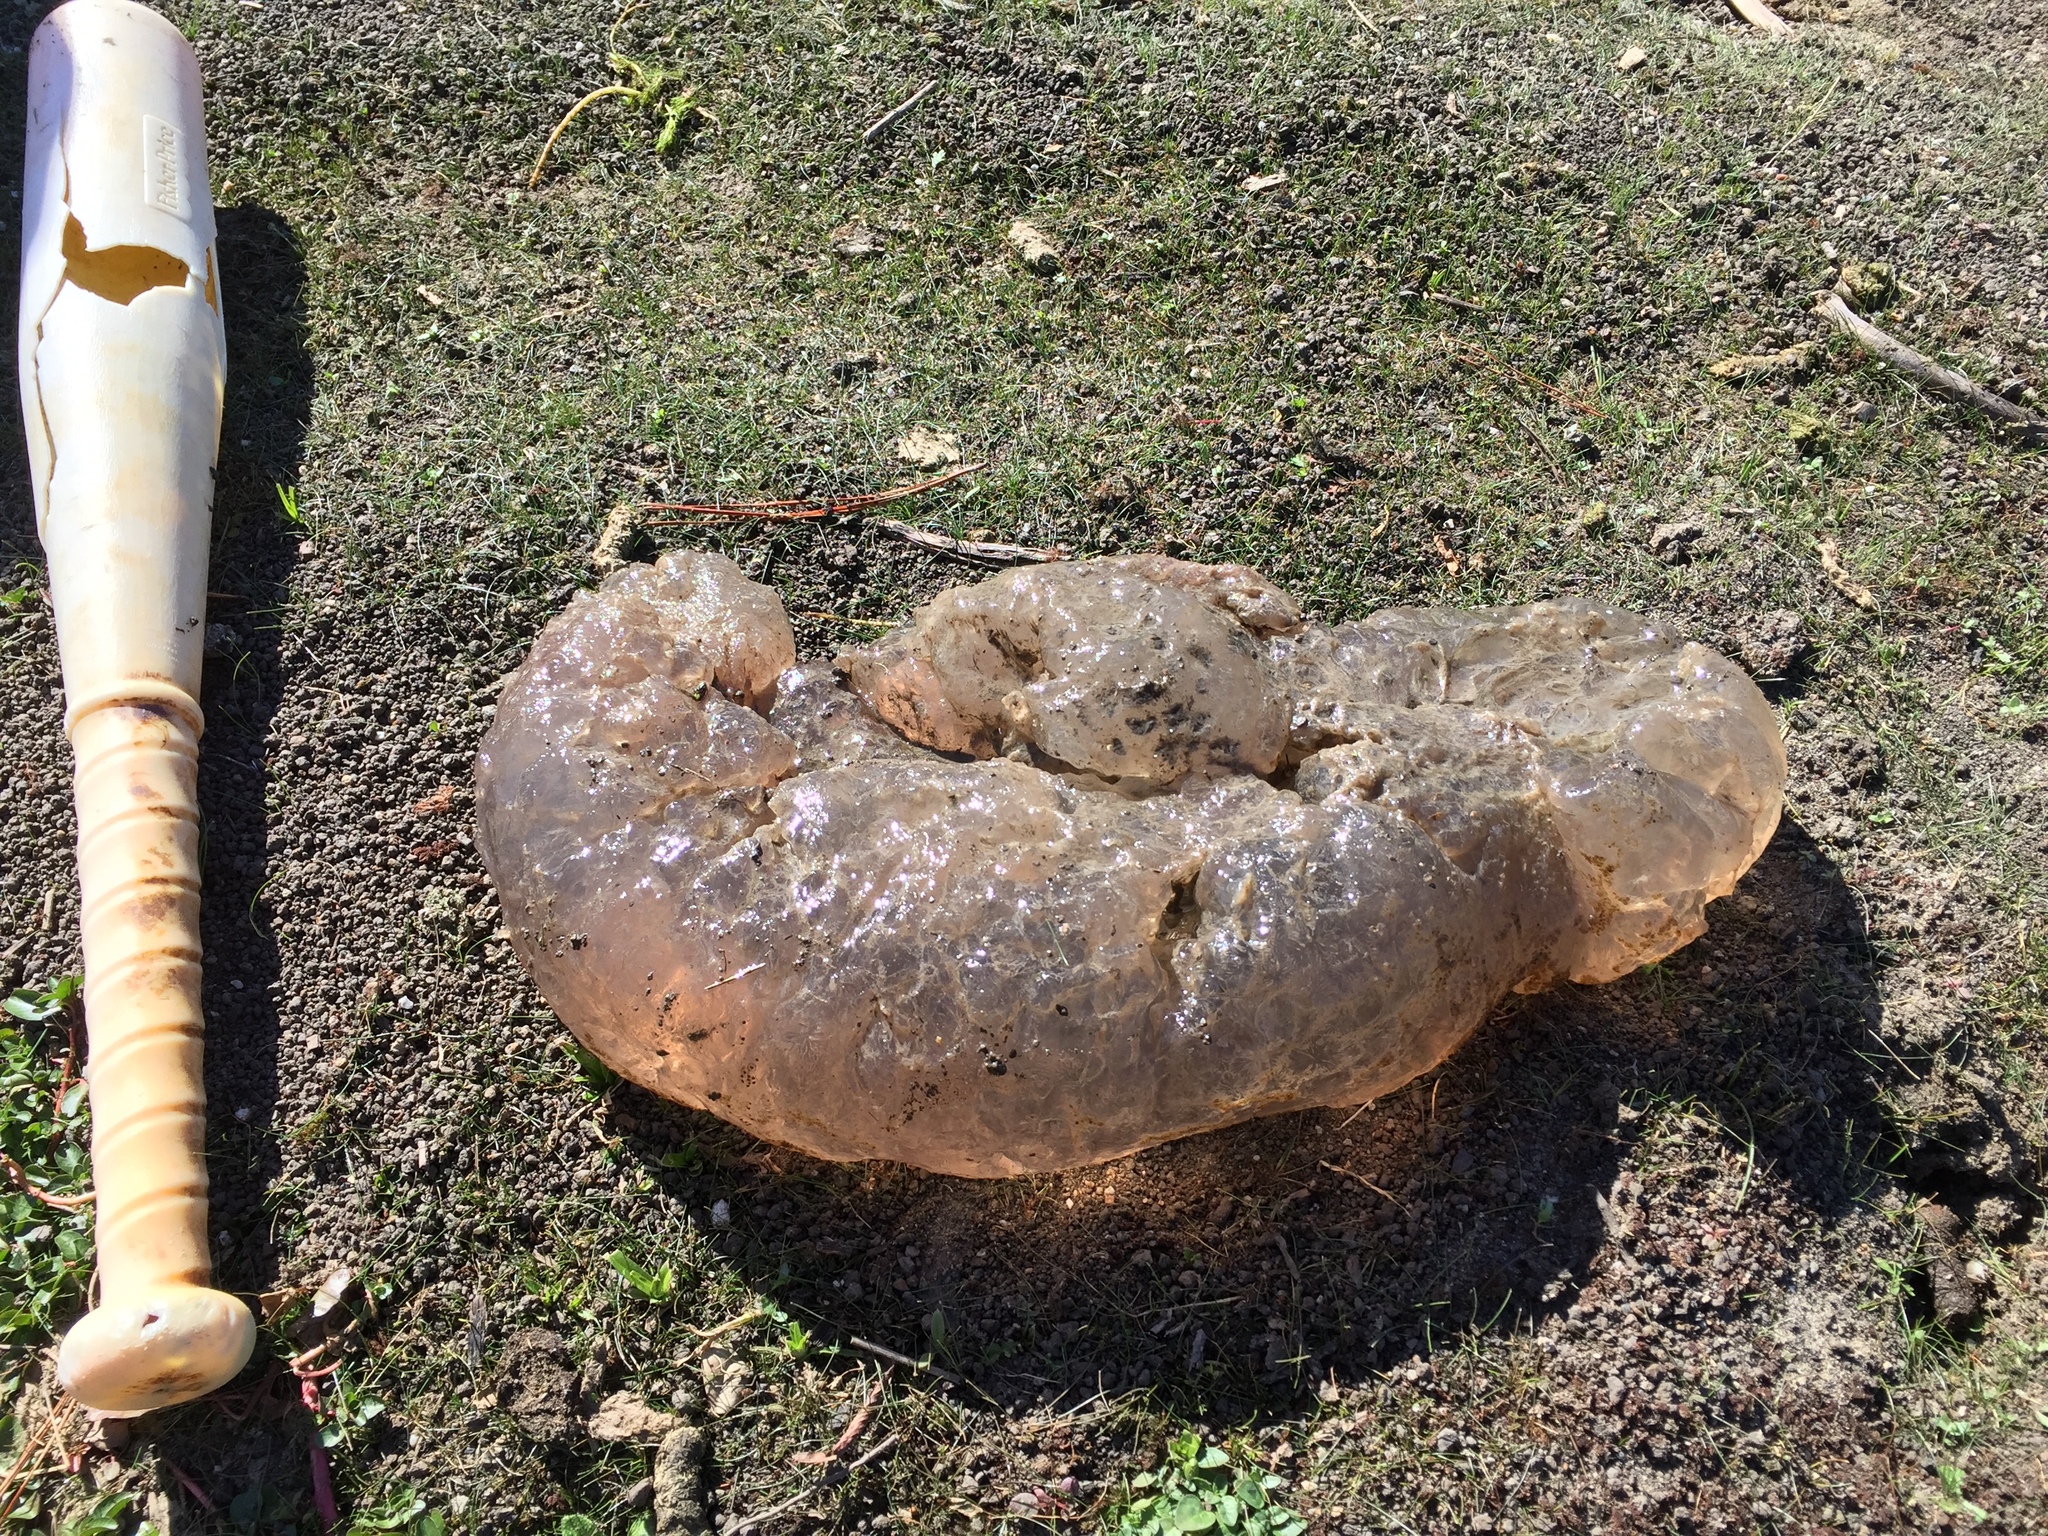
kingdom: Animalia
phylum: Bryozoa
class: Phylactolaemata
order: Plumatellida
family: Pectinatellidae
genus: Pectinatella
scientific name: Pectinatella magnifica
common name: Magnificent bryozoan
